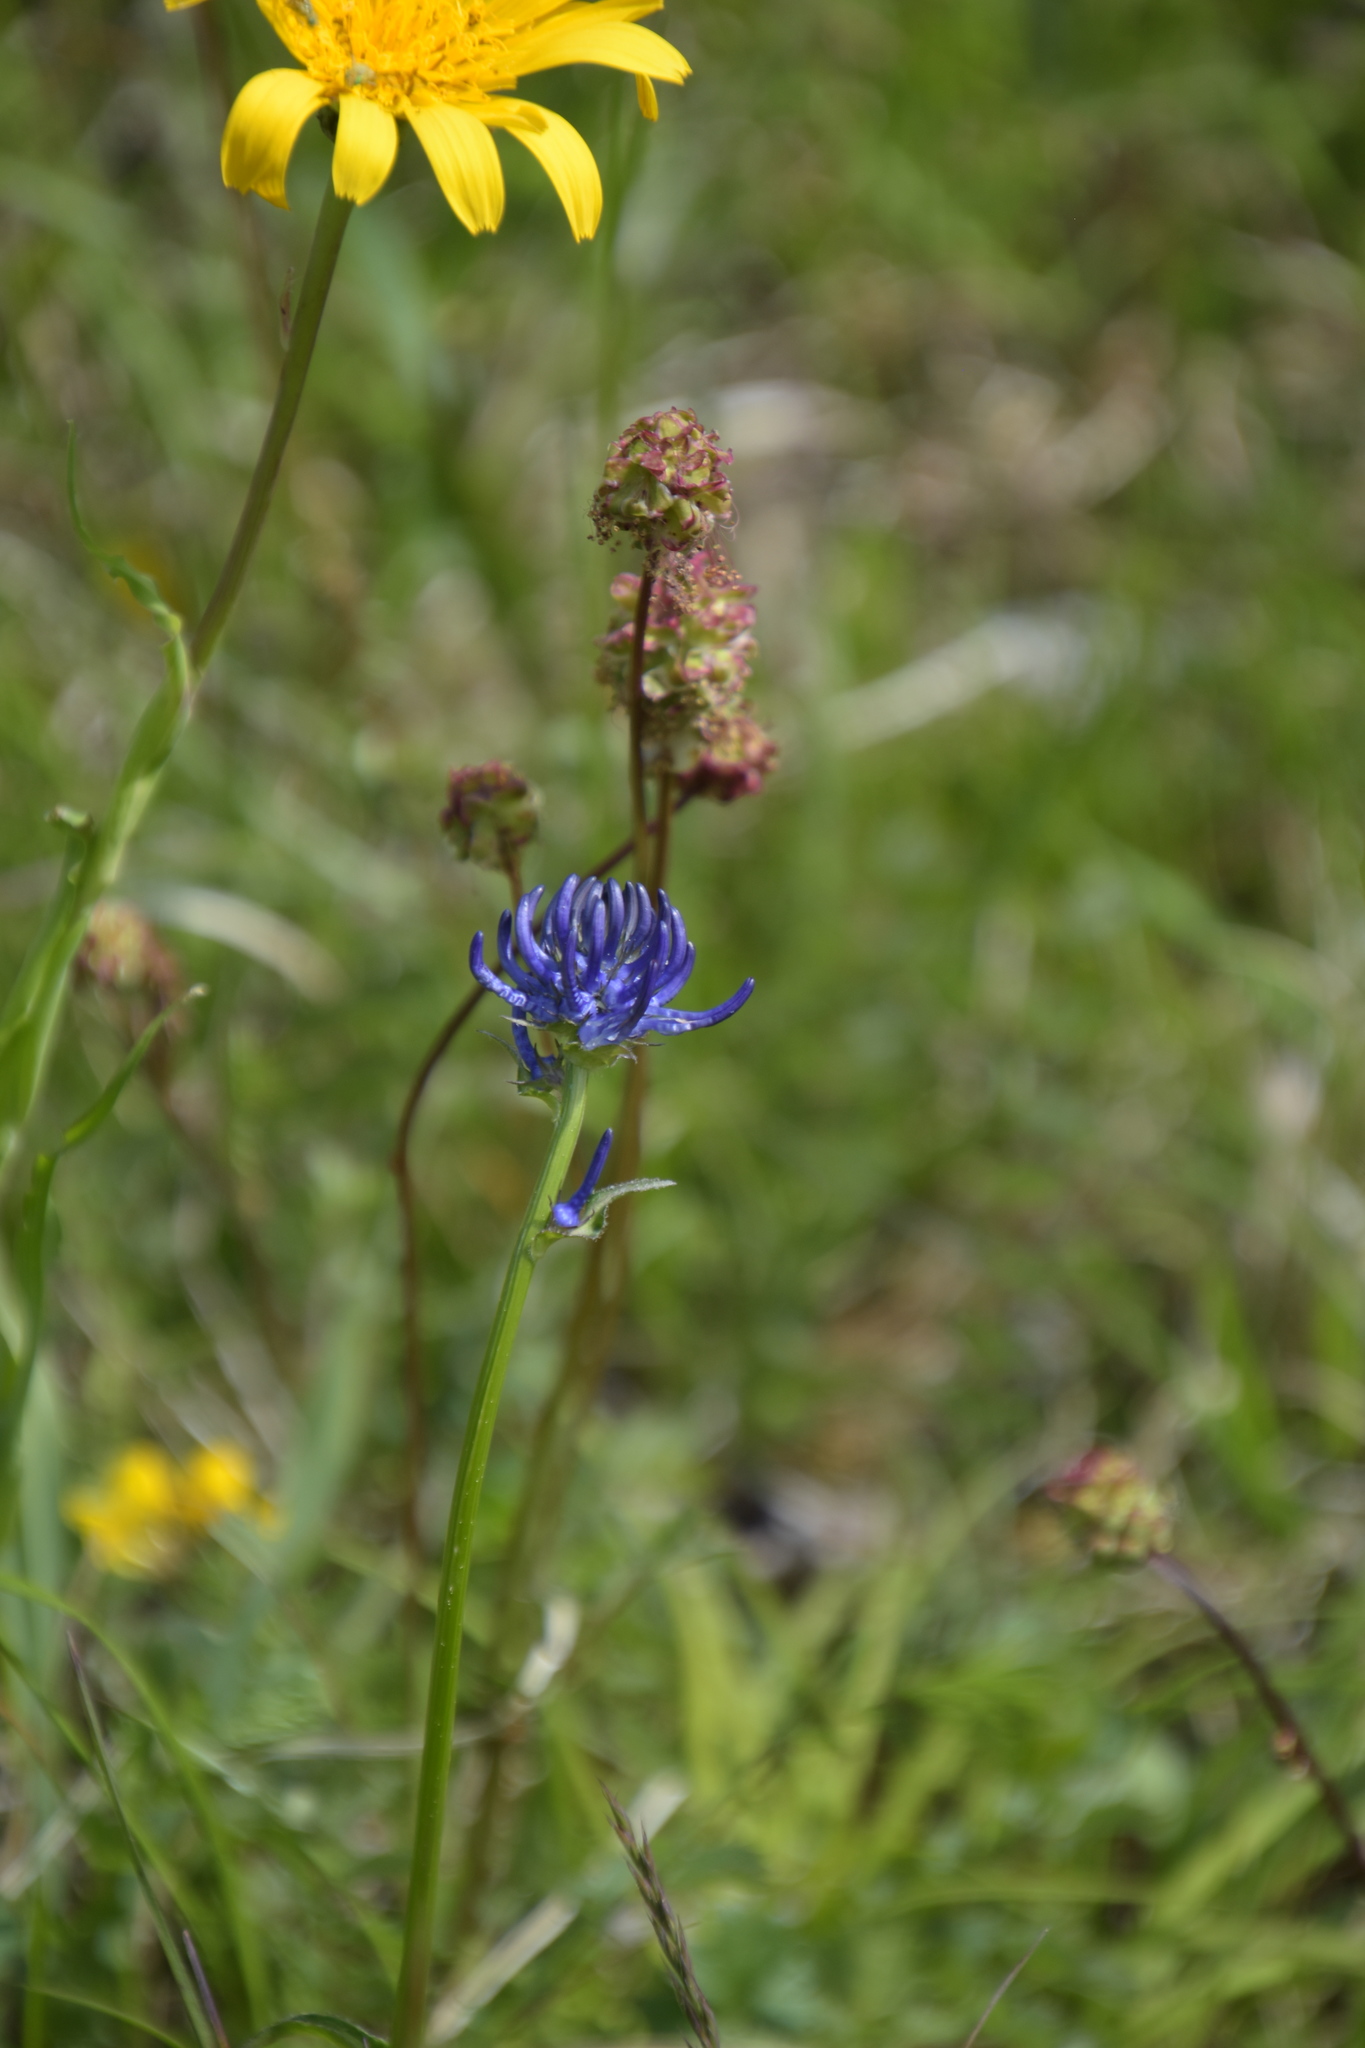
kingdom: Plantae
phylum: Tracheophyta
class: Magnoliopsida
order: Asterales
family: Campanulaceae
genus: Phyteuma
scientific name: Phyteuma orbiculare
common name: Round-headed rampion
